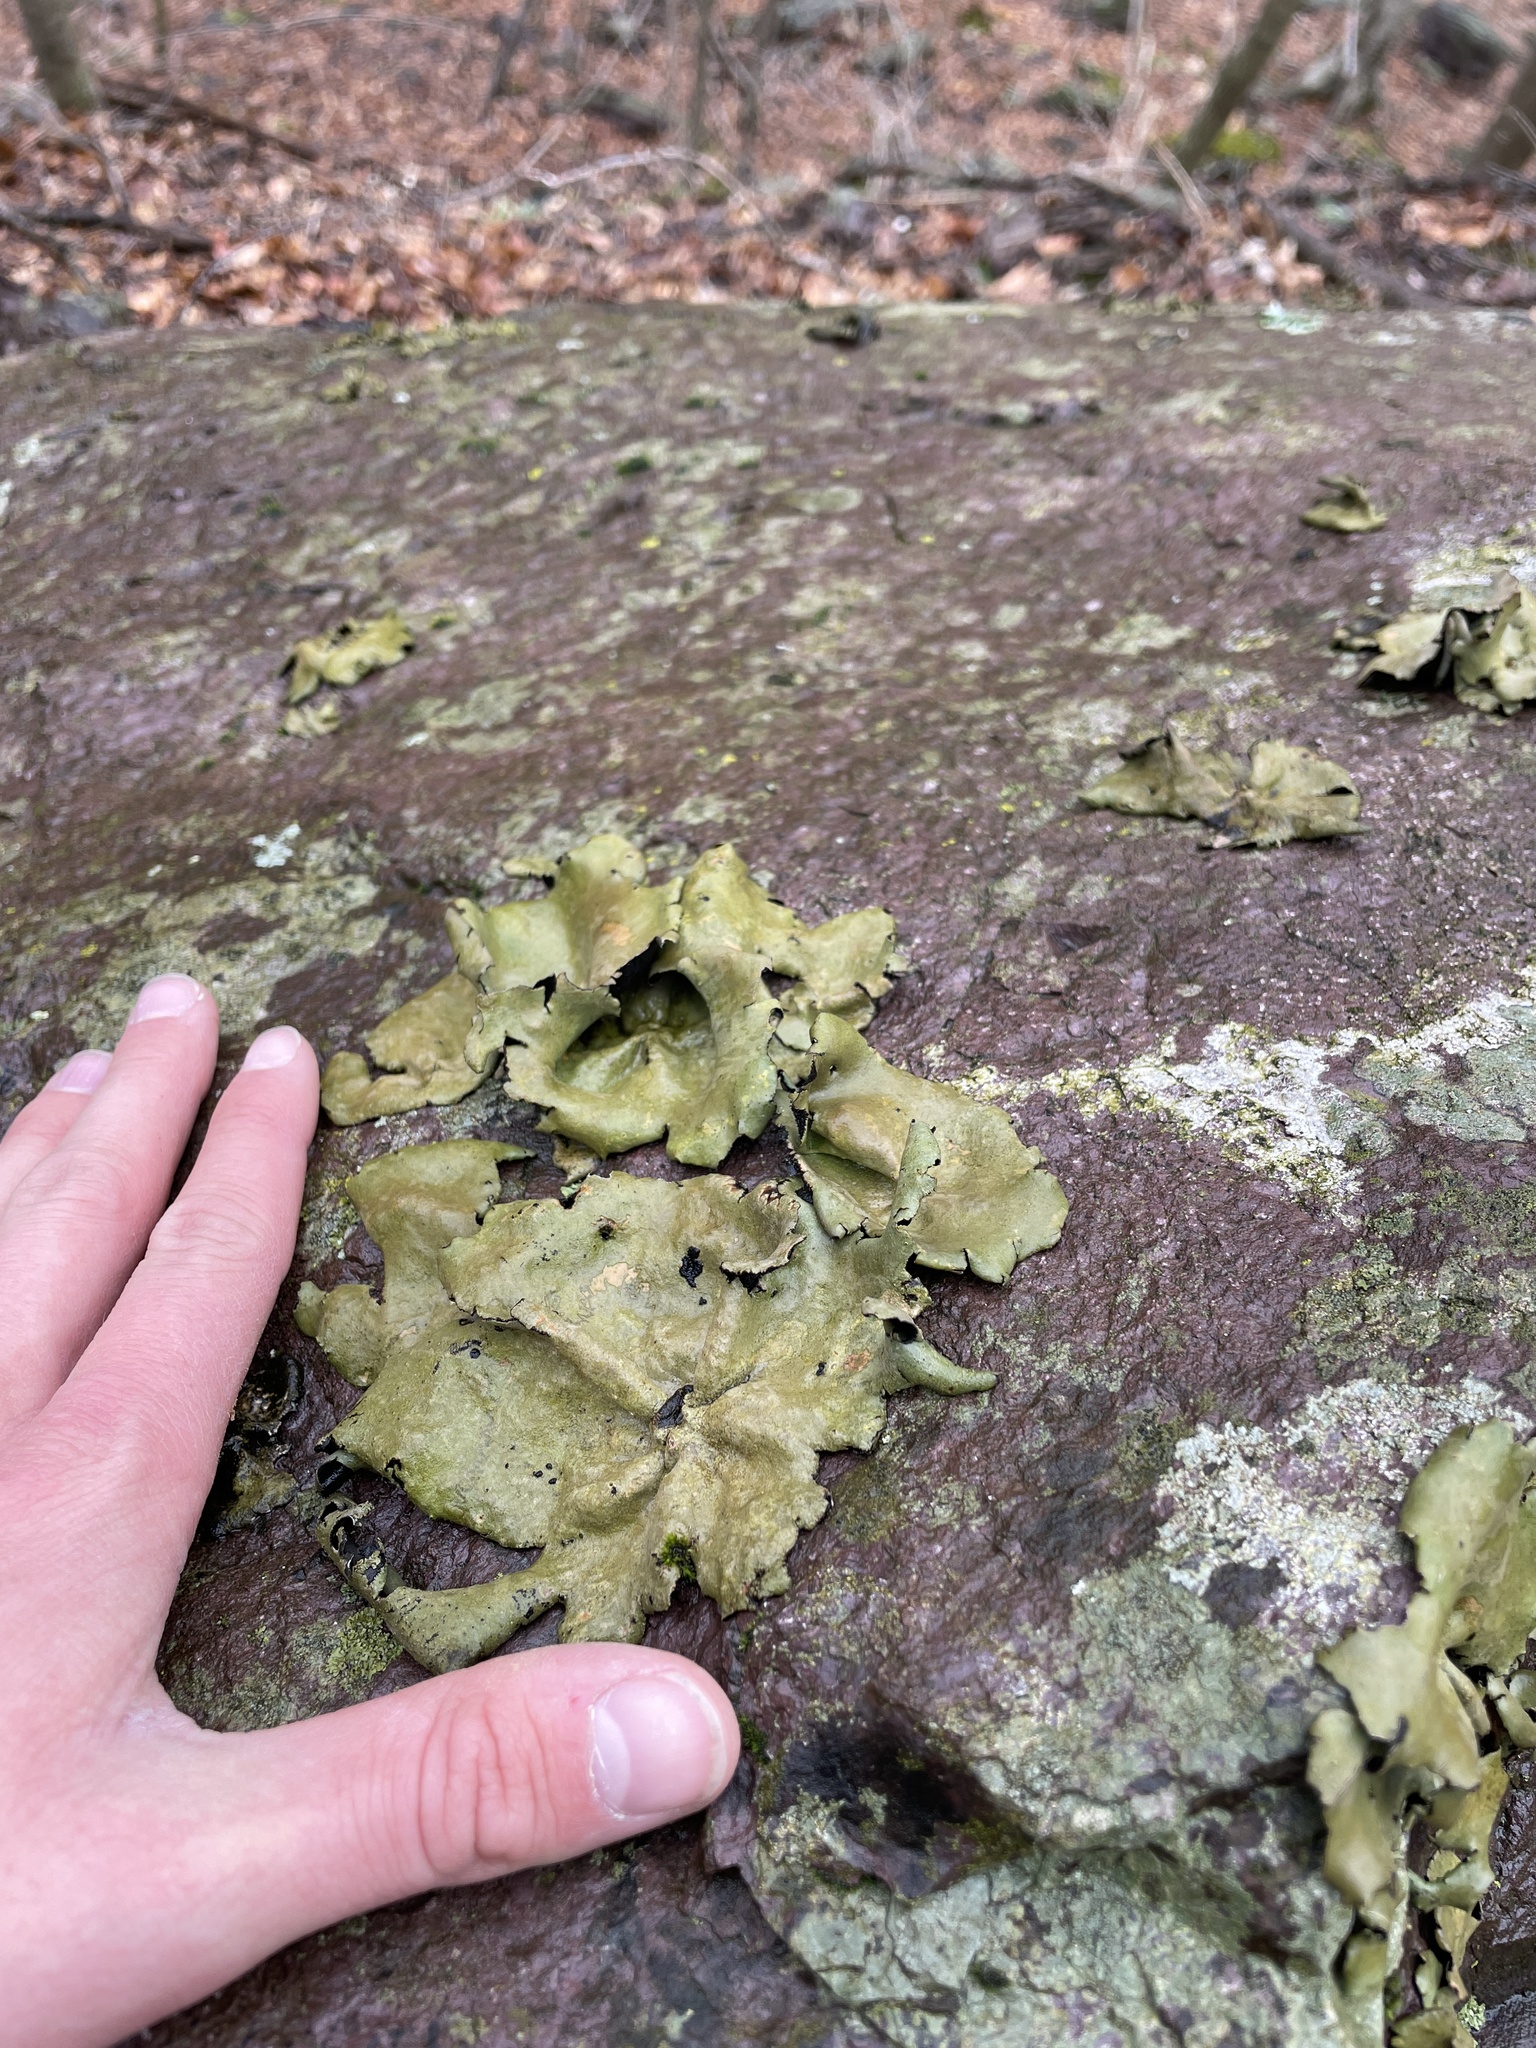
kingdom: Fungi
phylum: Ascomycota
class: Lecanoromycetes
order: Umbilicariales
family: Umbilicariaceae
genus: Umbilicaria
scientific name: Umbilicaria mammulata
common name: Smooth rock tripe
